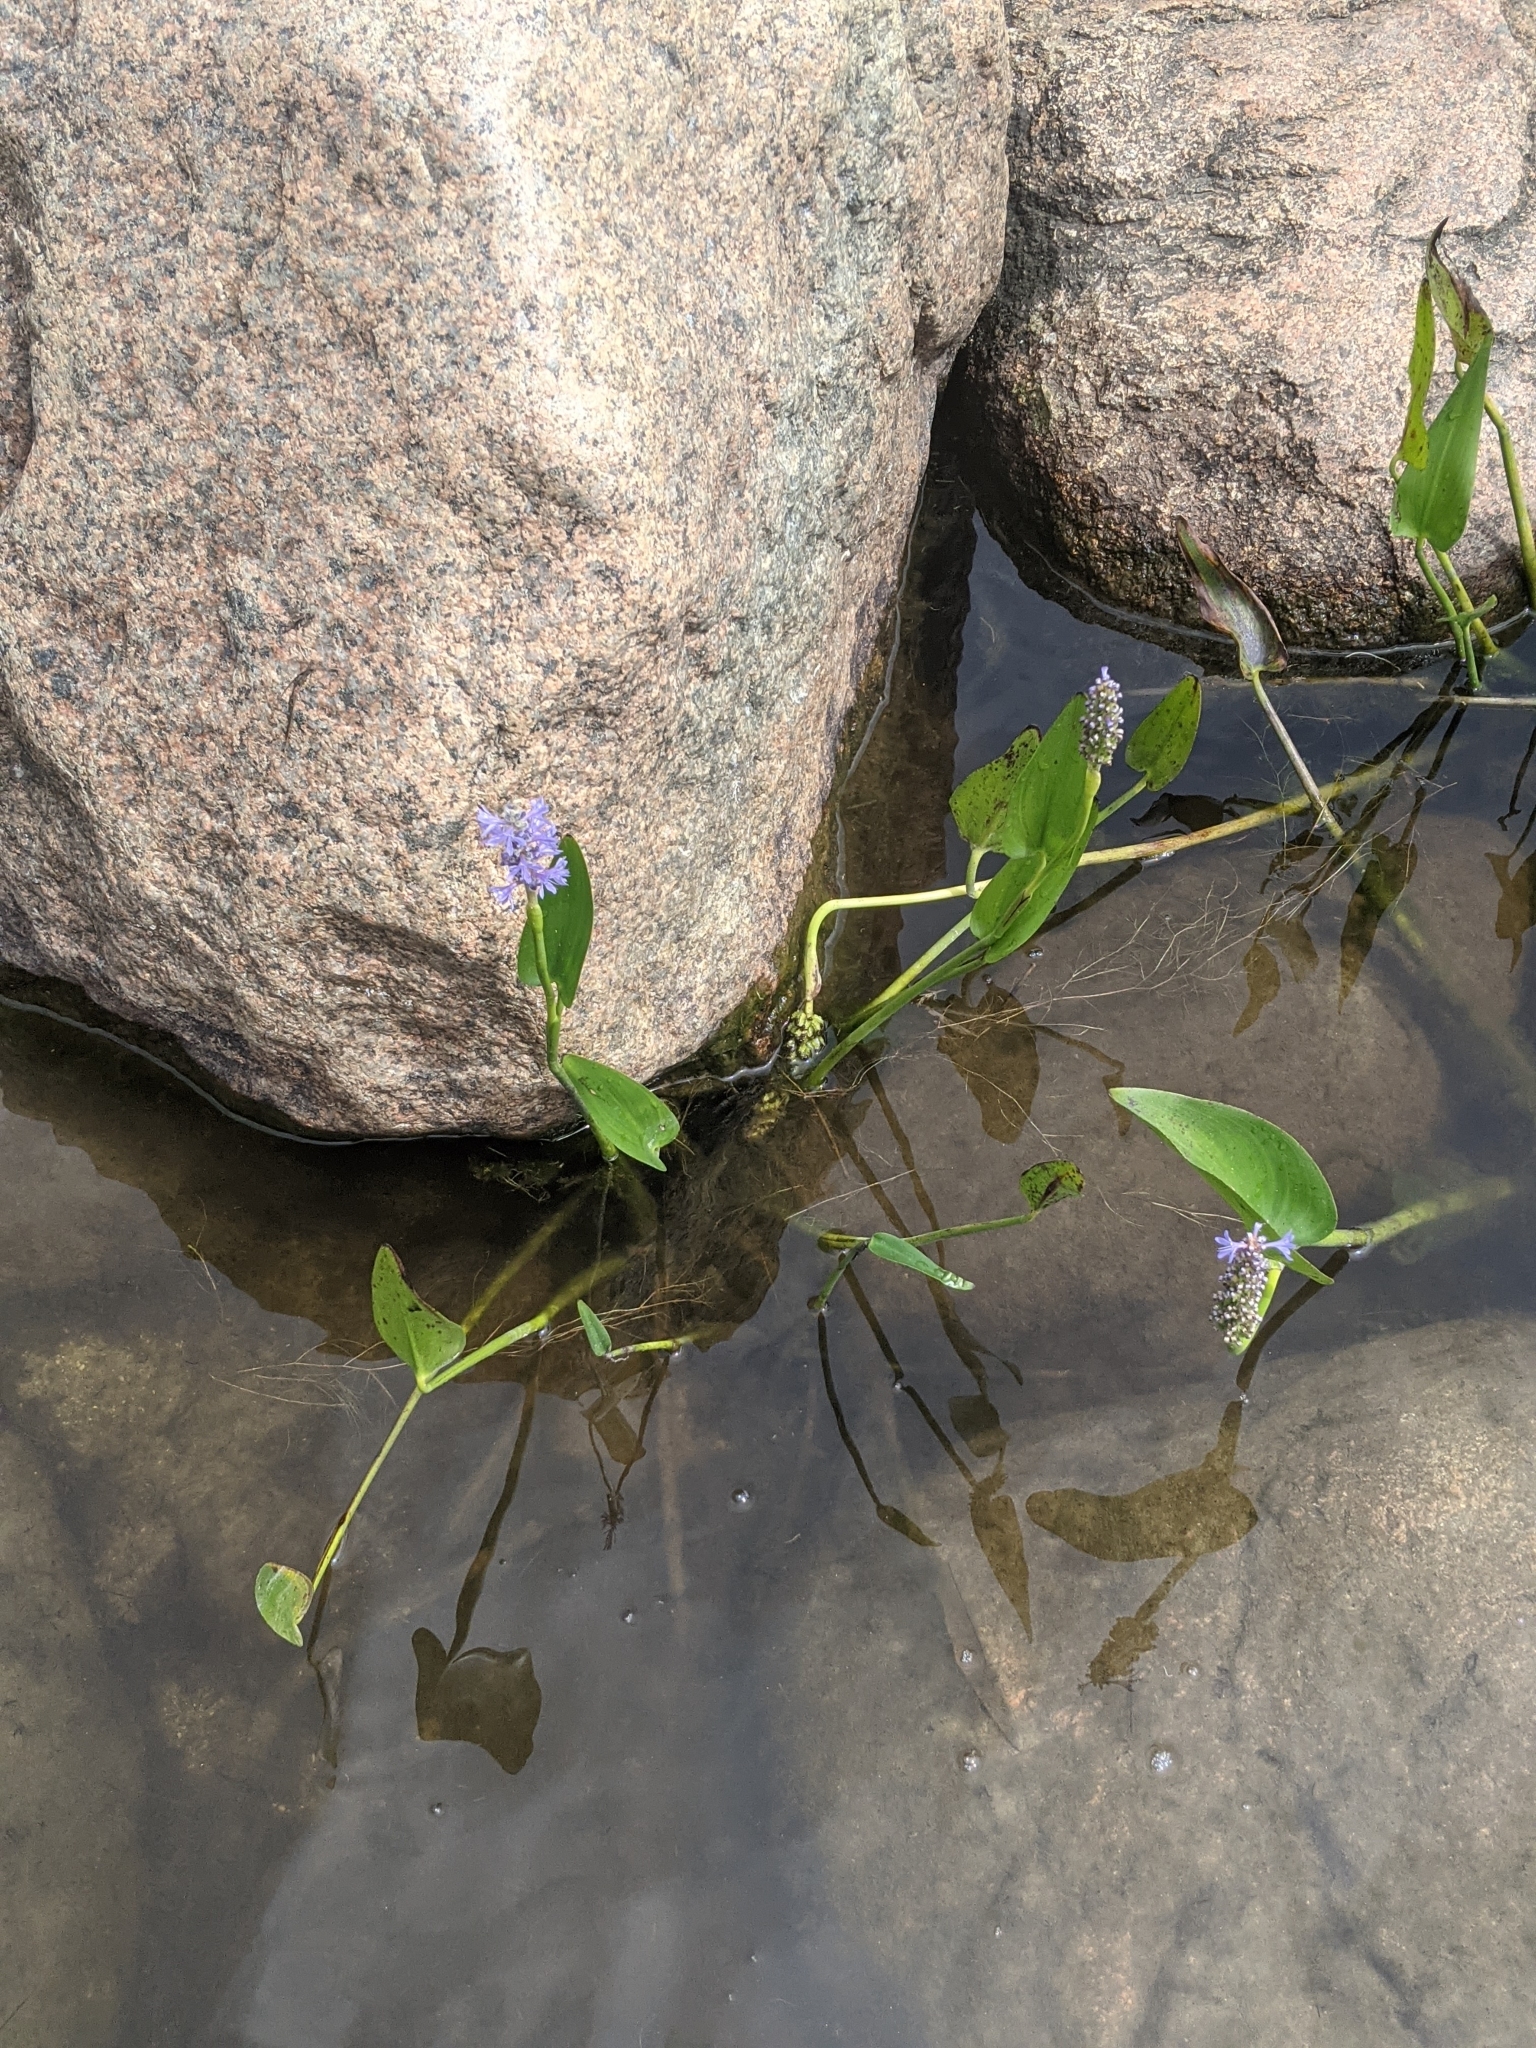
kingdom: Plantae
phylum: Tracheophyta
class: Liliopsida
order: Commelinales
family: Pontederiaceae
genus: Pontederia
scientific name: Pontederia cordata
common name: Pickerelweed
